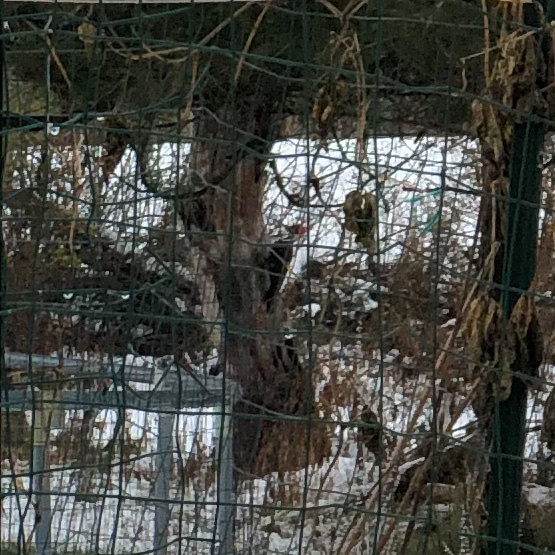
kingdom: Animalia
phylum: Chordata
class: Aves
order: Piciformes
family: Picidae
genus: Dryocopus
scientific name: Dryocopus pileatus
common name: Pileated woodpecker
